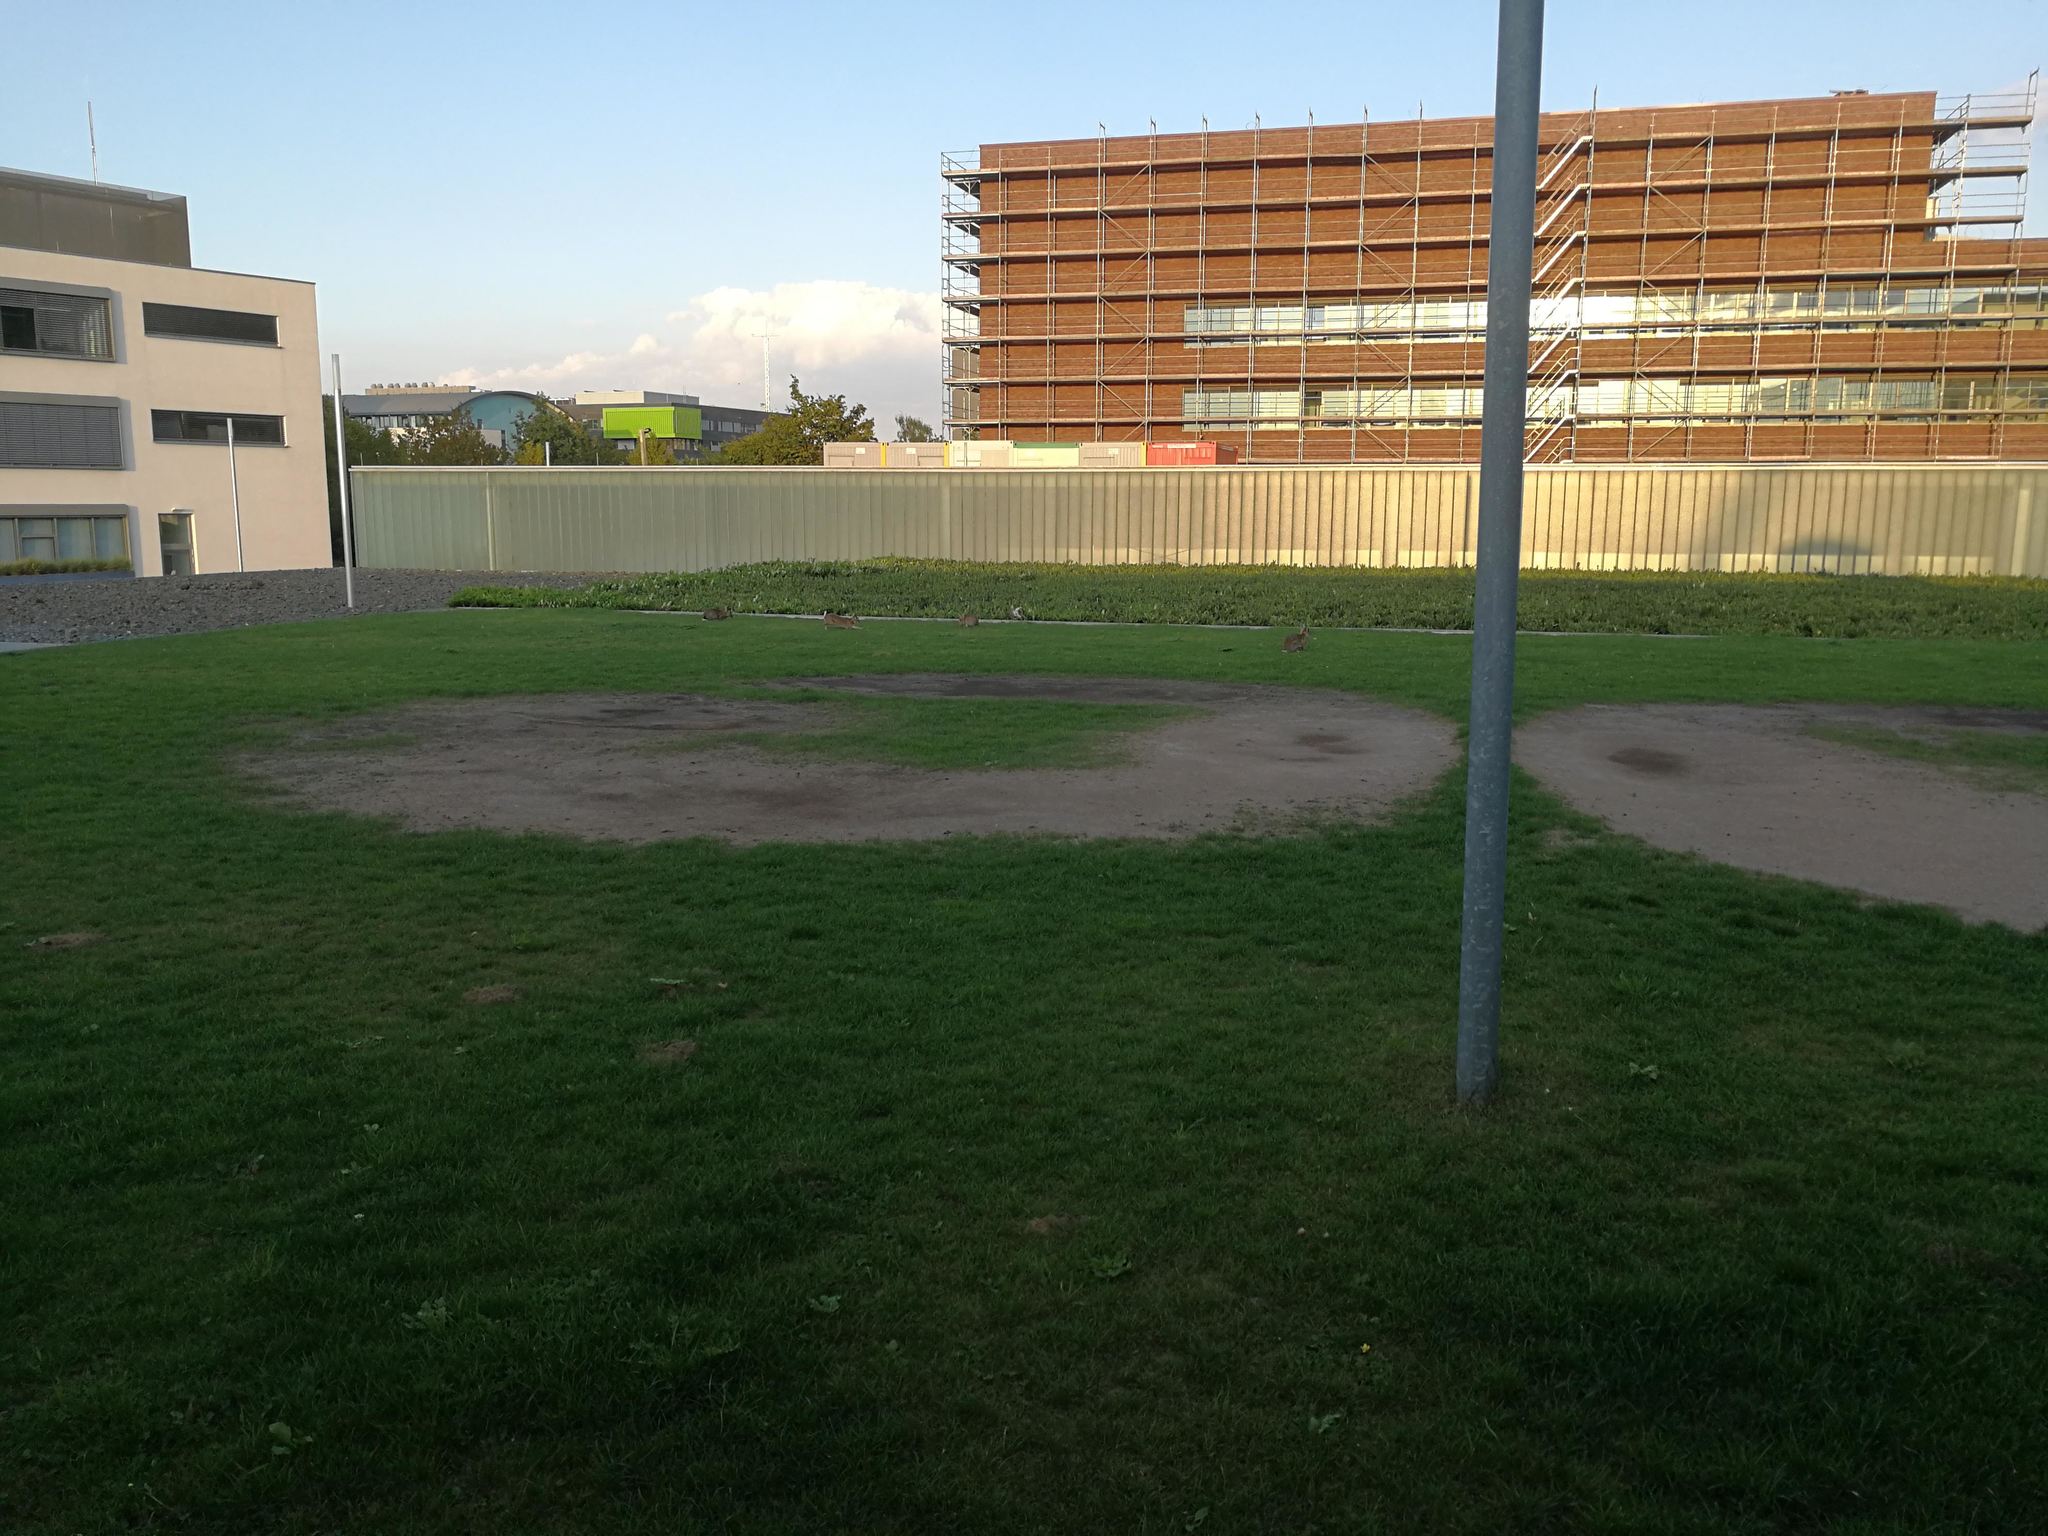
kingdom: Animalia
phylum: Chordata
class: Mammalia
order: Lagomorpha
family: Leporidae
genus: Oryctolagus
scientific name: Oryctolagus cuniculus
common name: European rabbit
